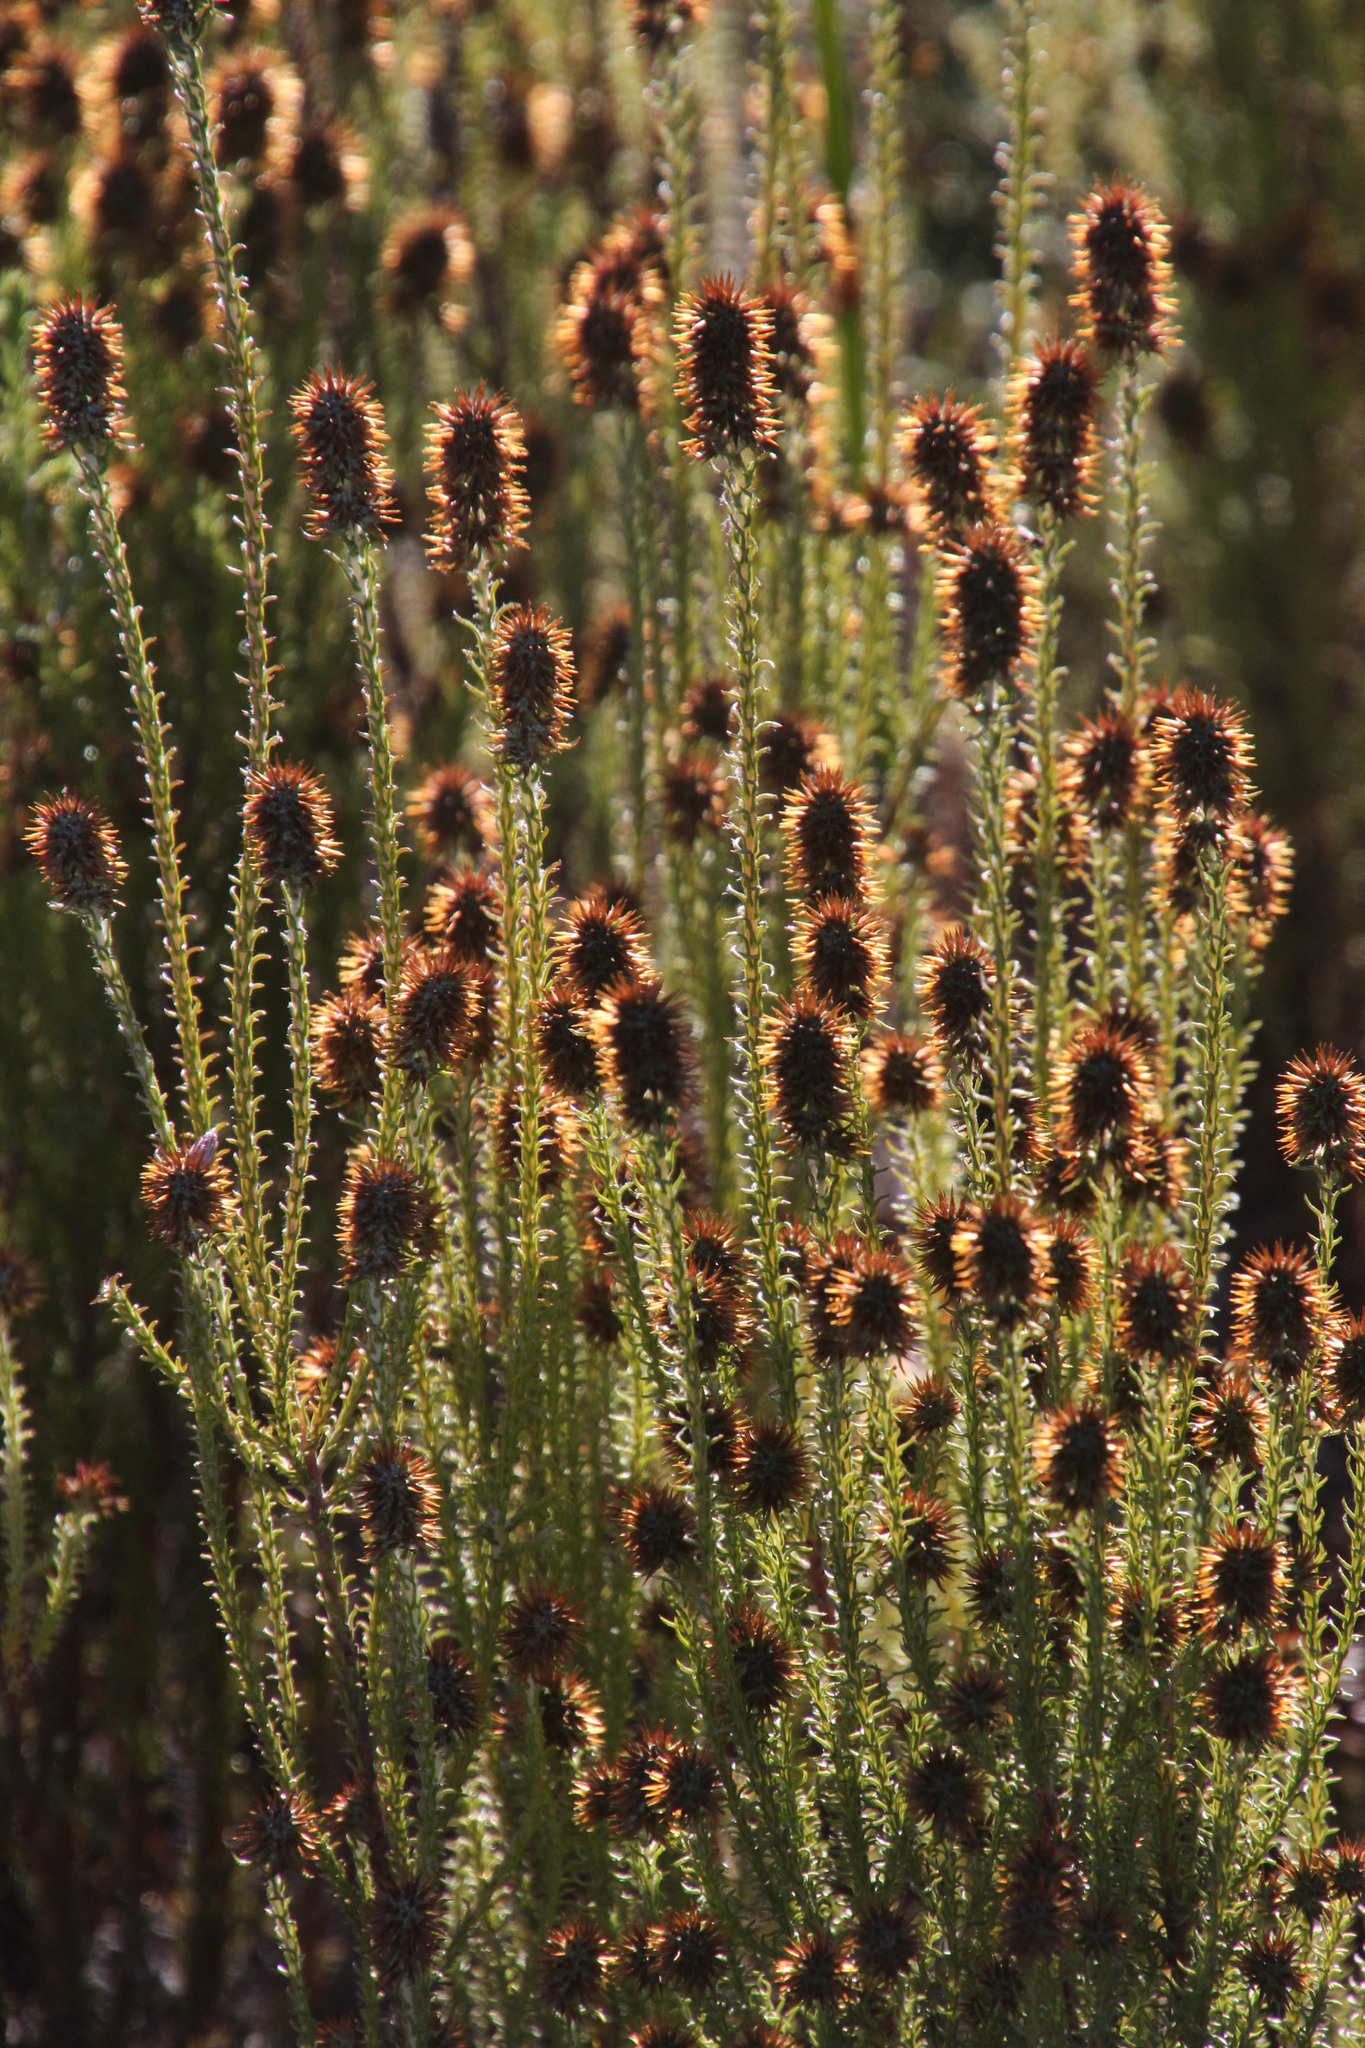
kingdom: Plantae
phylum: Tracheophyta
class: Magnoliopsida
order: Asterales
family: Asteraceae
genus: Seriphium
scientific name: Seriphium cinereum
